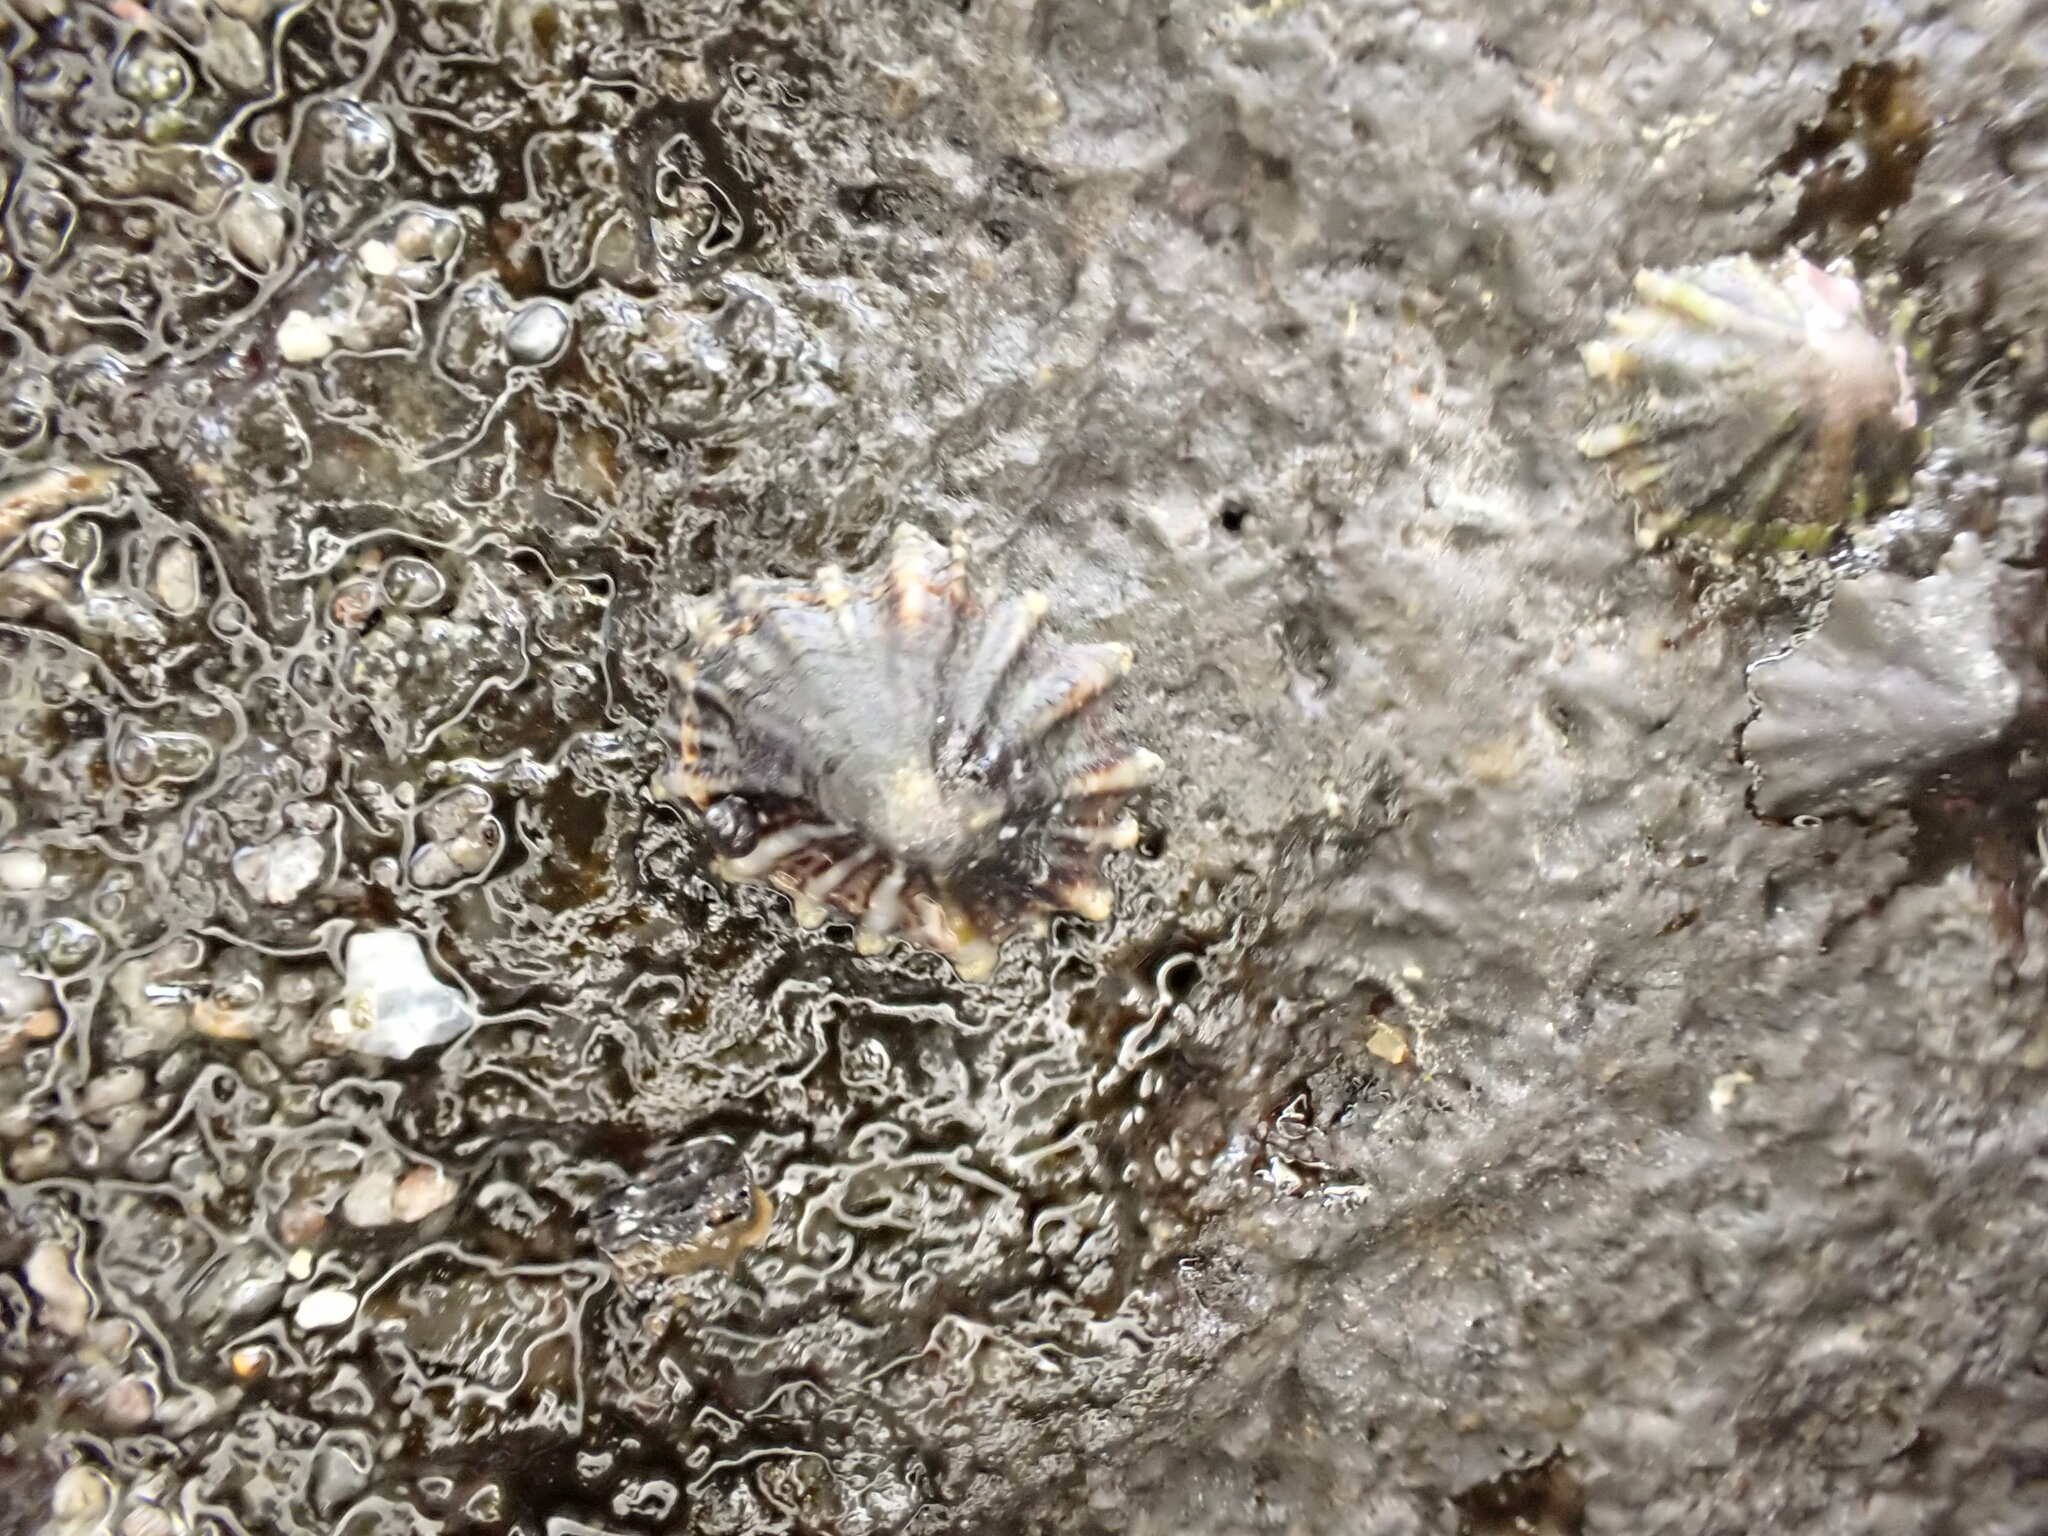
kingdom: Animalia
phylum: Mollusca
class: Gastropoda
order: Siphonariida
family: Siphonariidae
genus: Siphonaria
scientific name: Siphonaria australis
